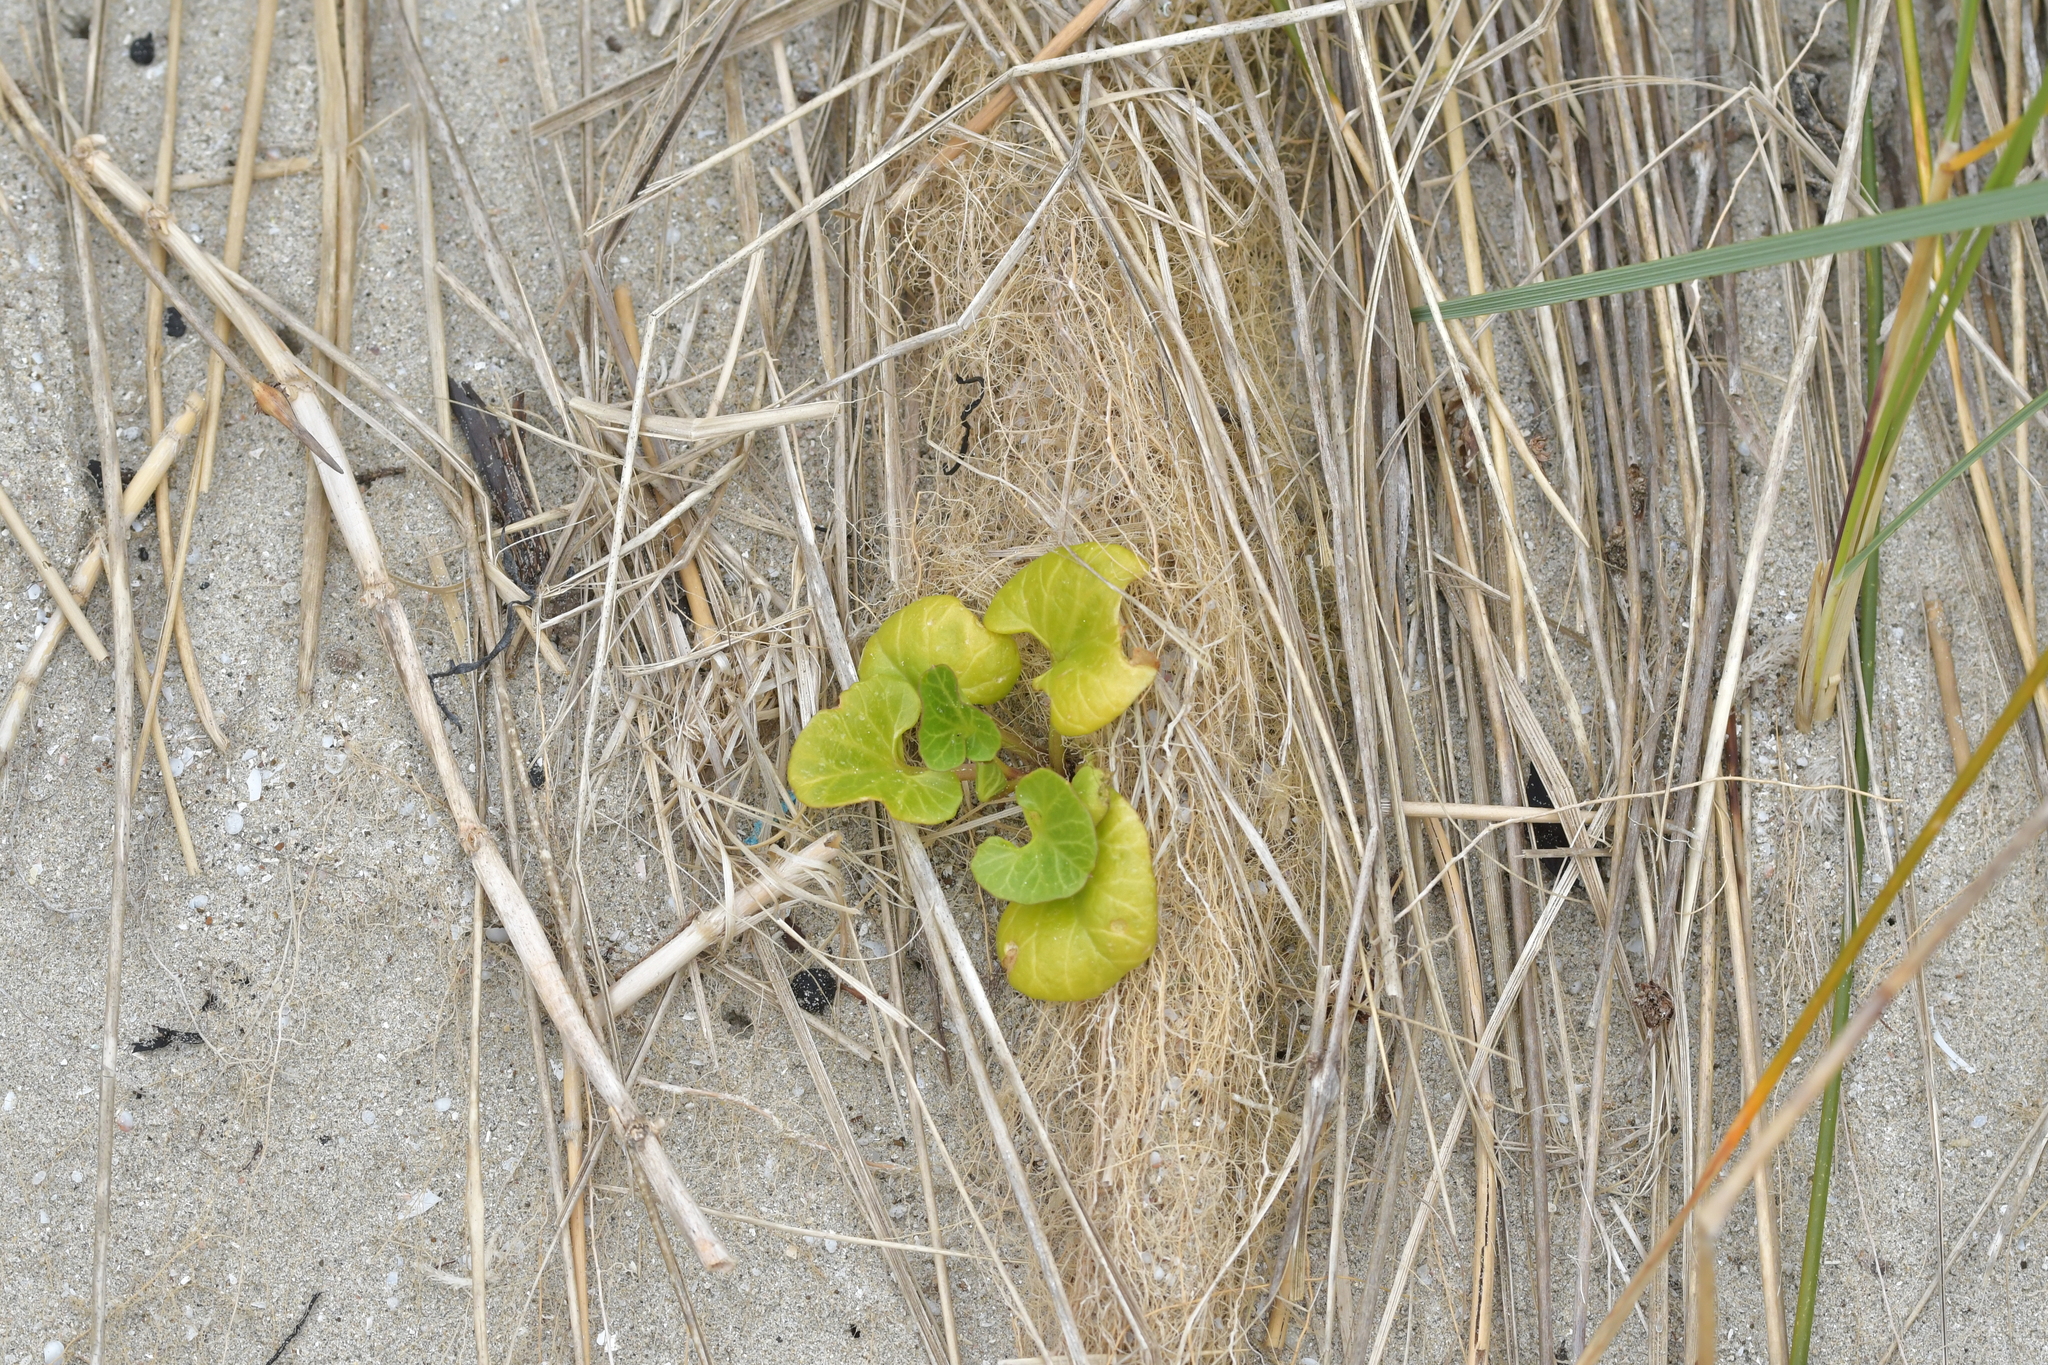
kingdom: Plantae
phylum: Tracheophyta
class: Magnoliopsida
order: Solanales
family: Convolvulaceae
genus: Calystegia
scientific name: Calystegia soldanella
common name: Sea bindweed
